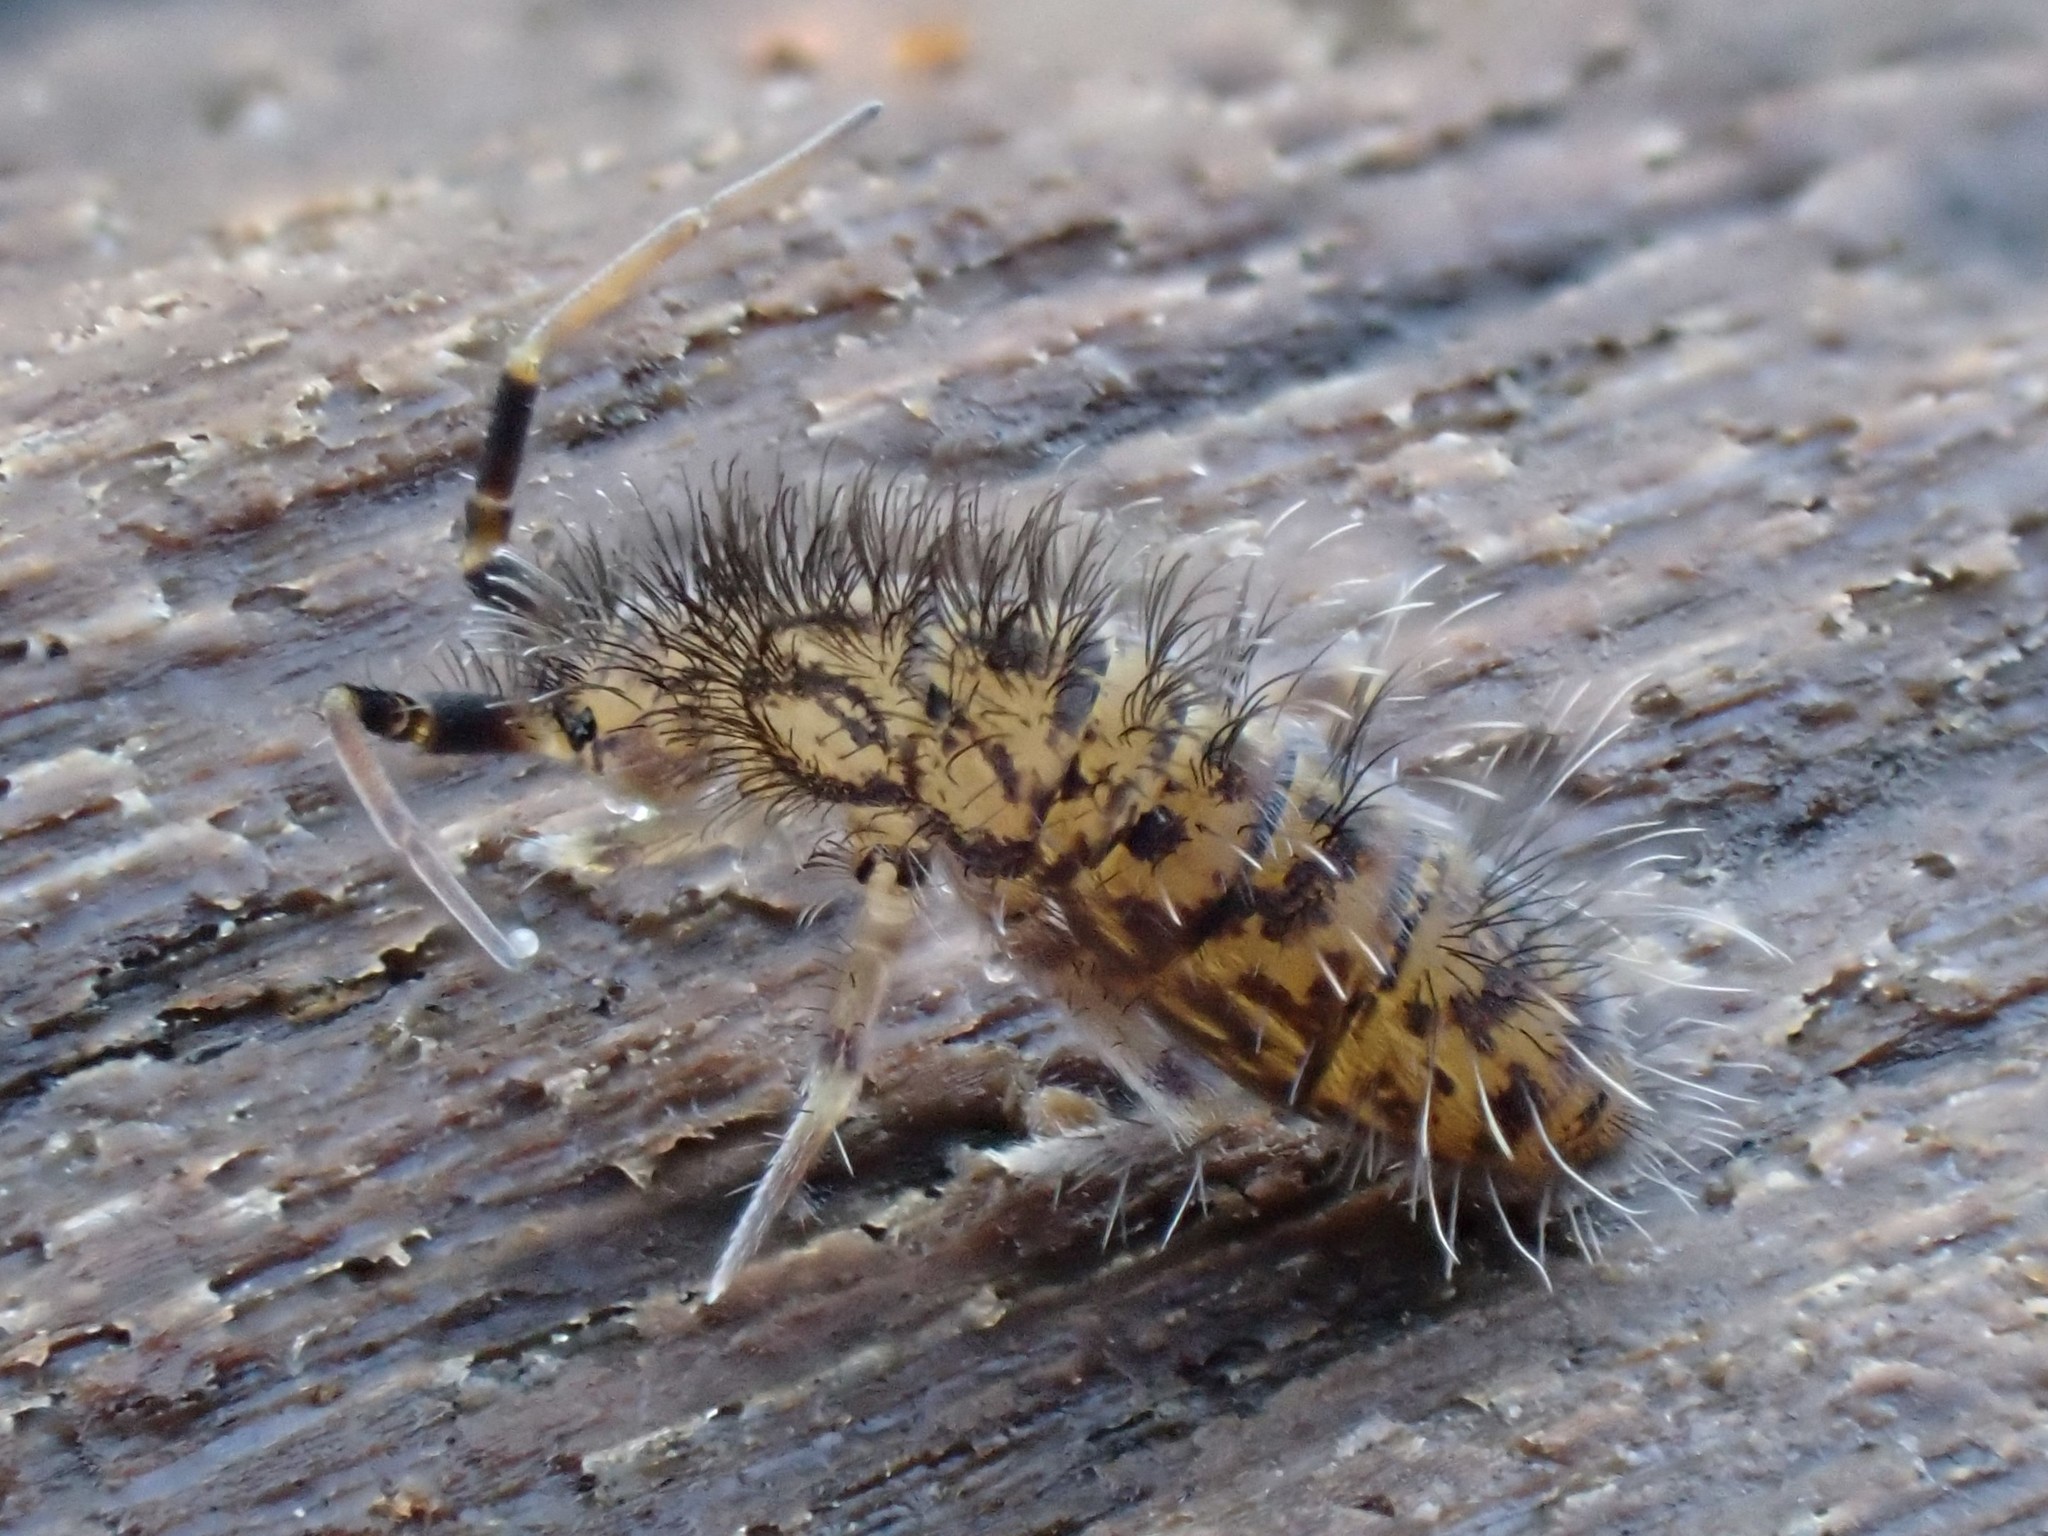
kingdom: Animalia
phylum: Arthropoda
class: Collembola
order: Entomobryomorpha
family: Orchesellidae
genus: Orchesella
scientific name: Orchesella villosa
